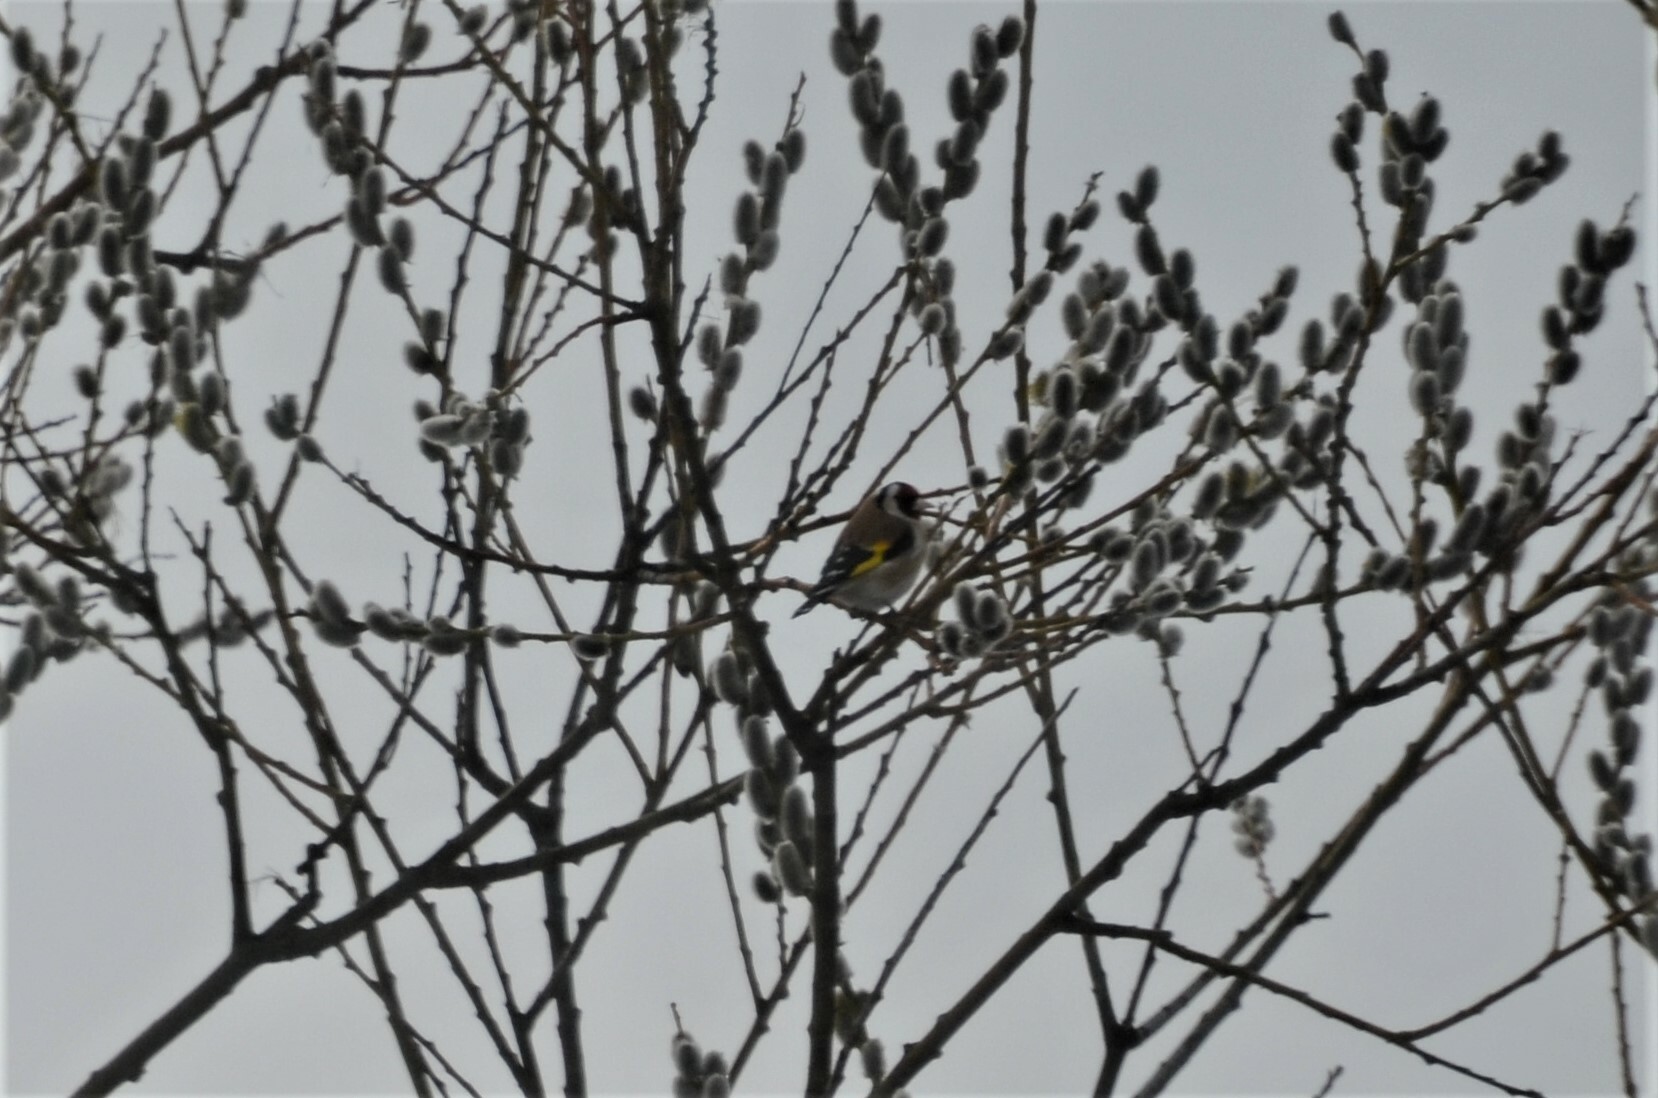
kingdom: Animalia
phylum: Chordata
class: Aves
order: Passeriformes
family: Fringillidae
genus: Carduelis
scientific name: Carduelis carduelis
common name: European goldfinch
